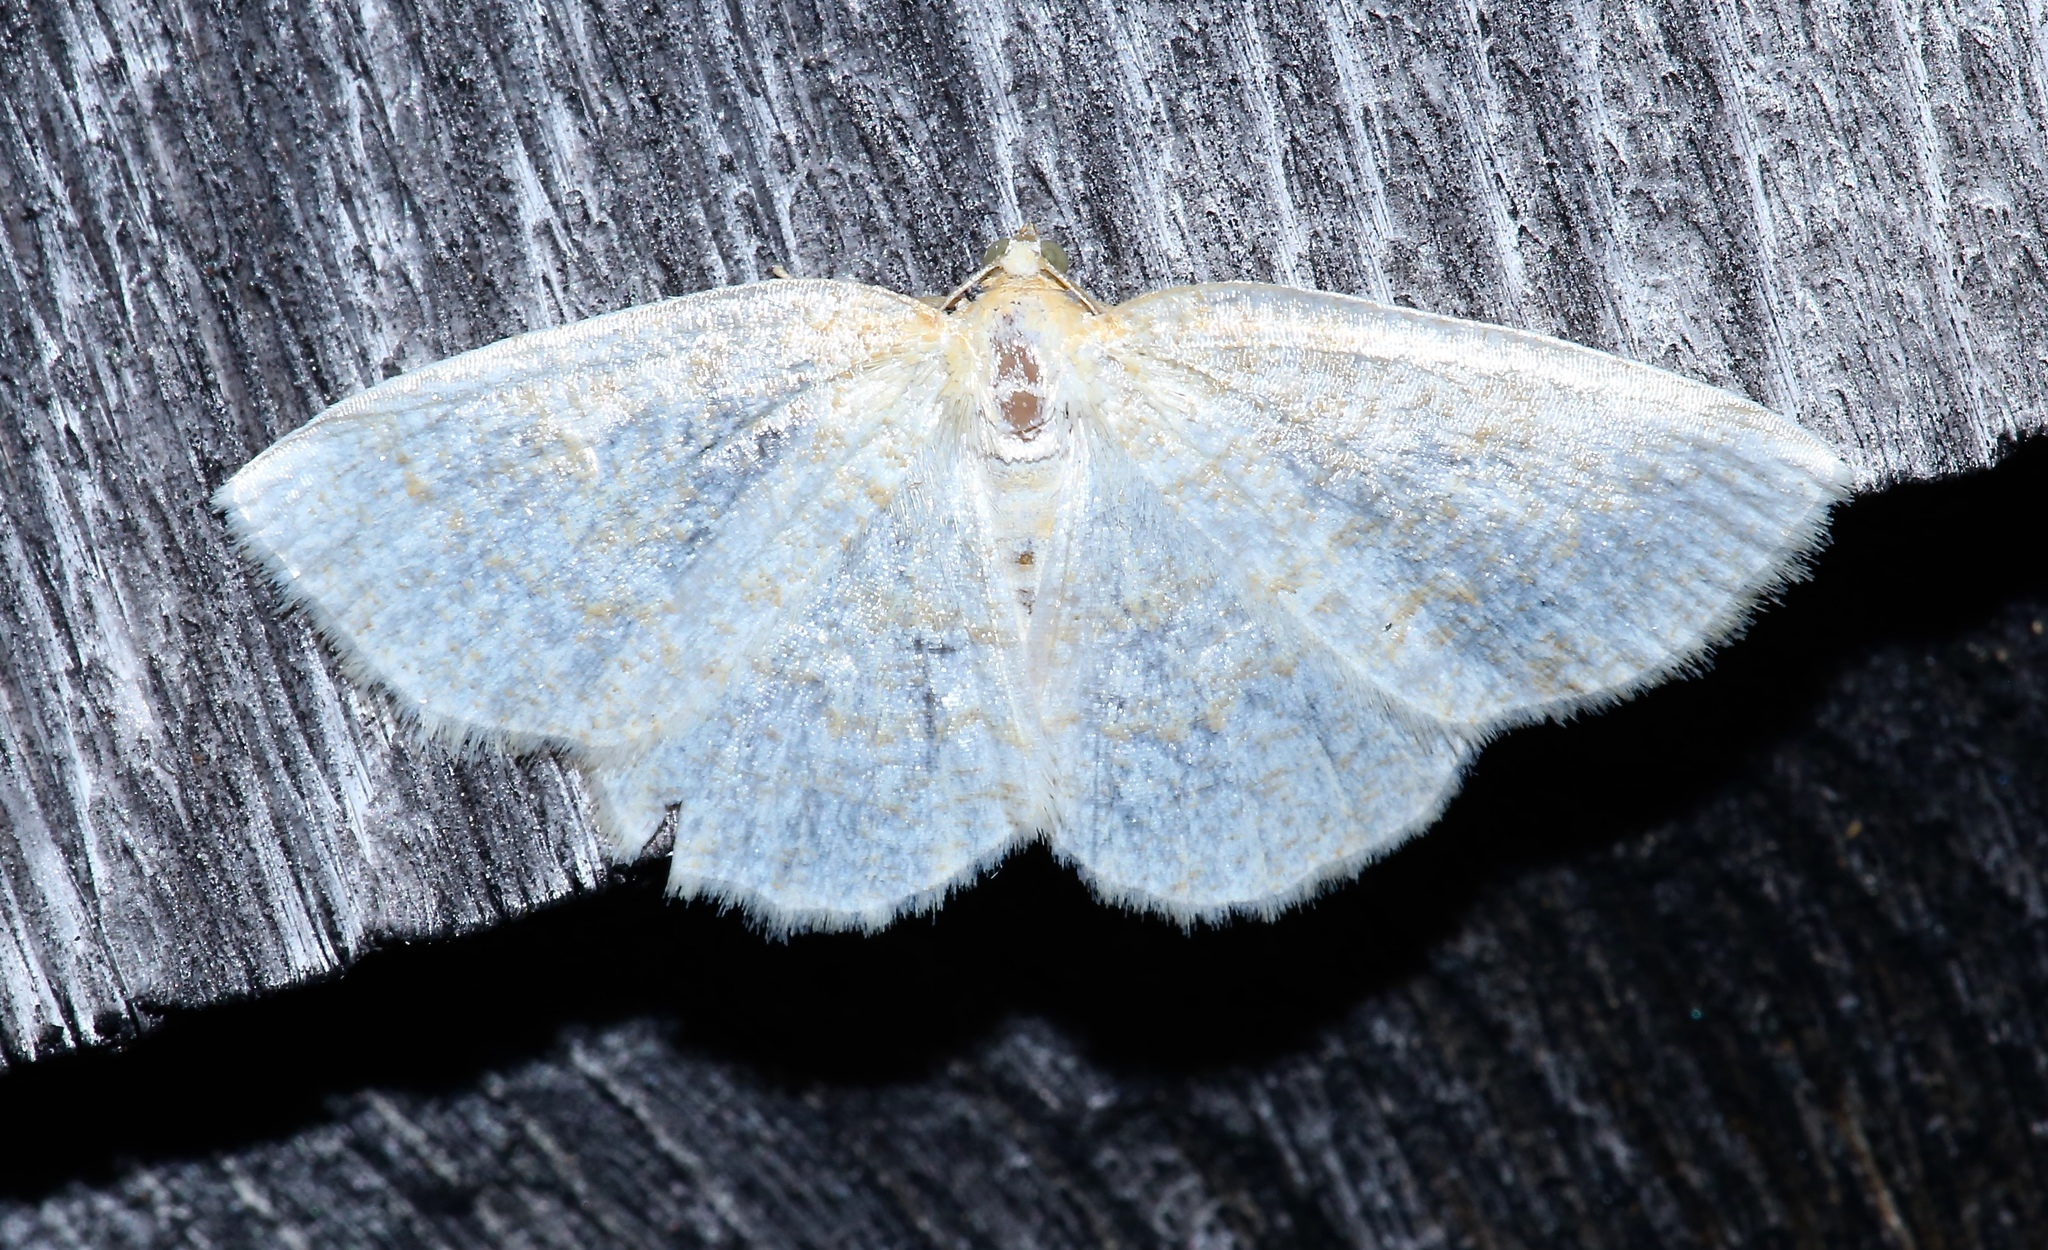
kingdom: Animalia
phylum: Arthropoda
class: Insecta
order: Lepidoptera
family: Geometridae
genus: Cabera
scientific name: Cabera erythemaria
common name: Yellow-dusted cream moth
